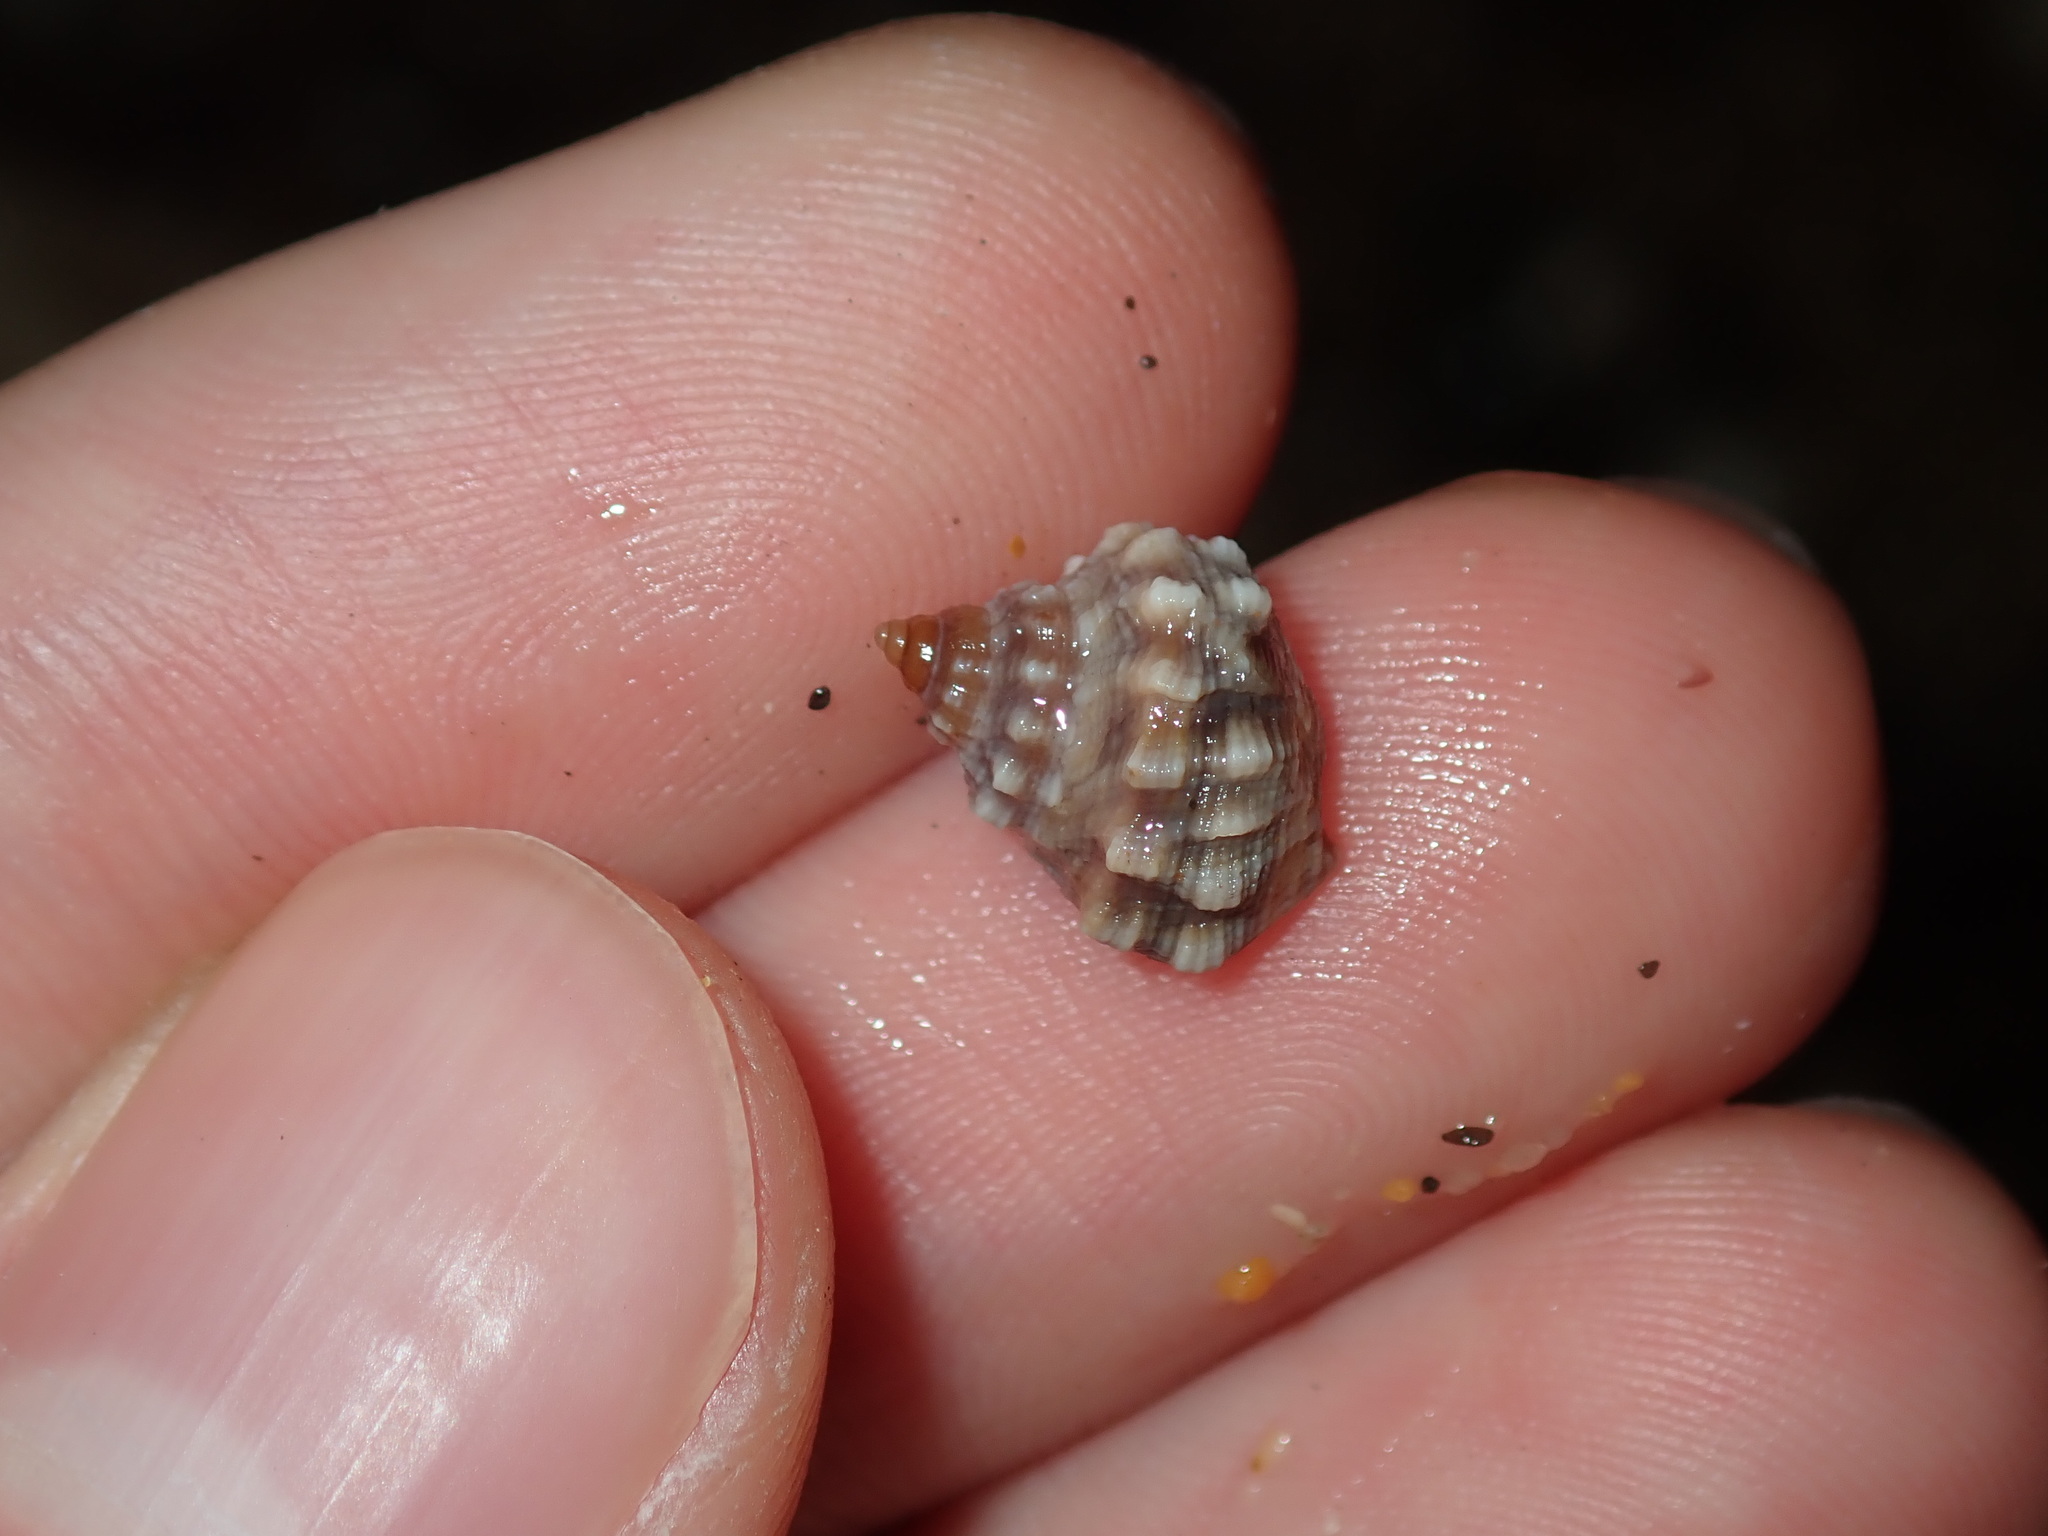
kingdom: Animalia
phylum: Mollusca
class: Gastropoda
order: Littorinimorpha
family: Littorinidae
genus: Nodilittorina
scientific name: Nodilittorina pyramidalis
